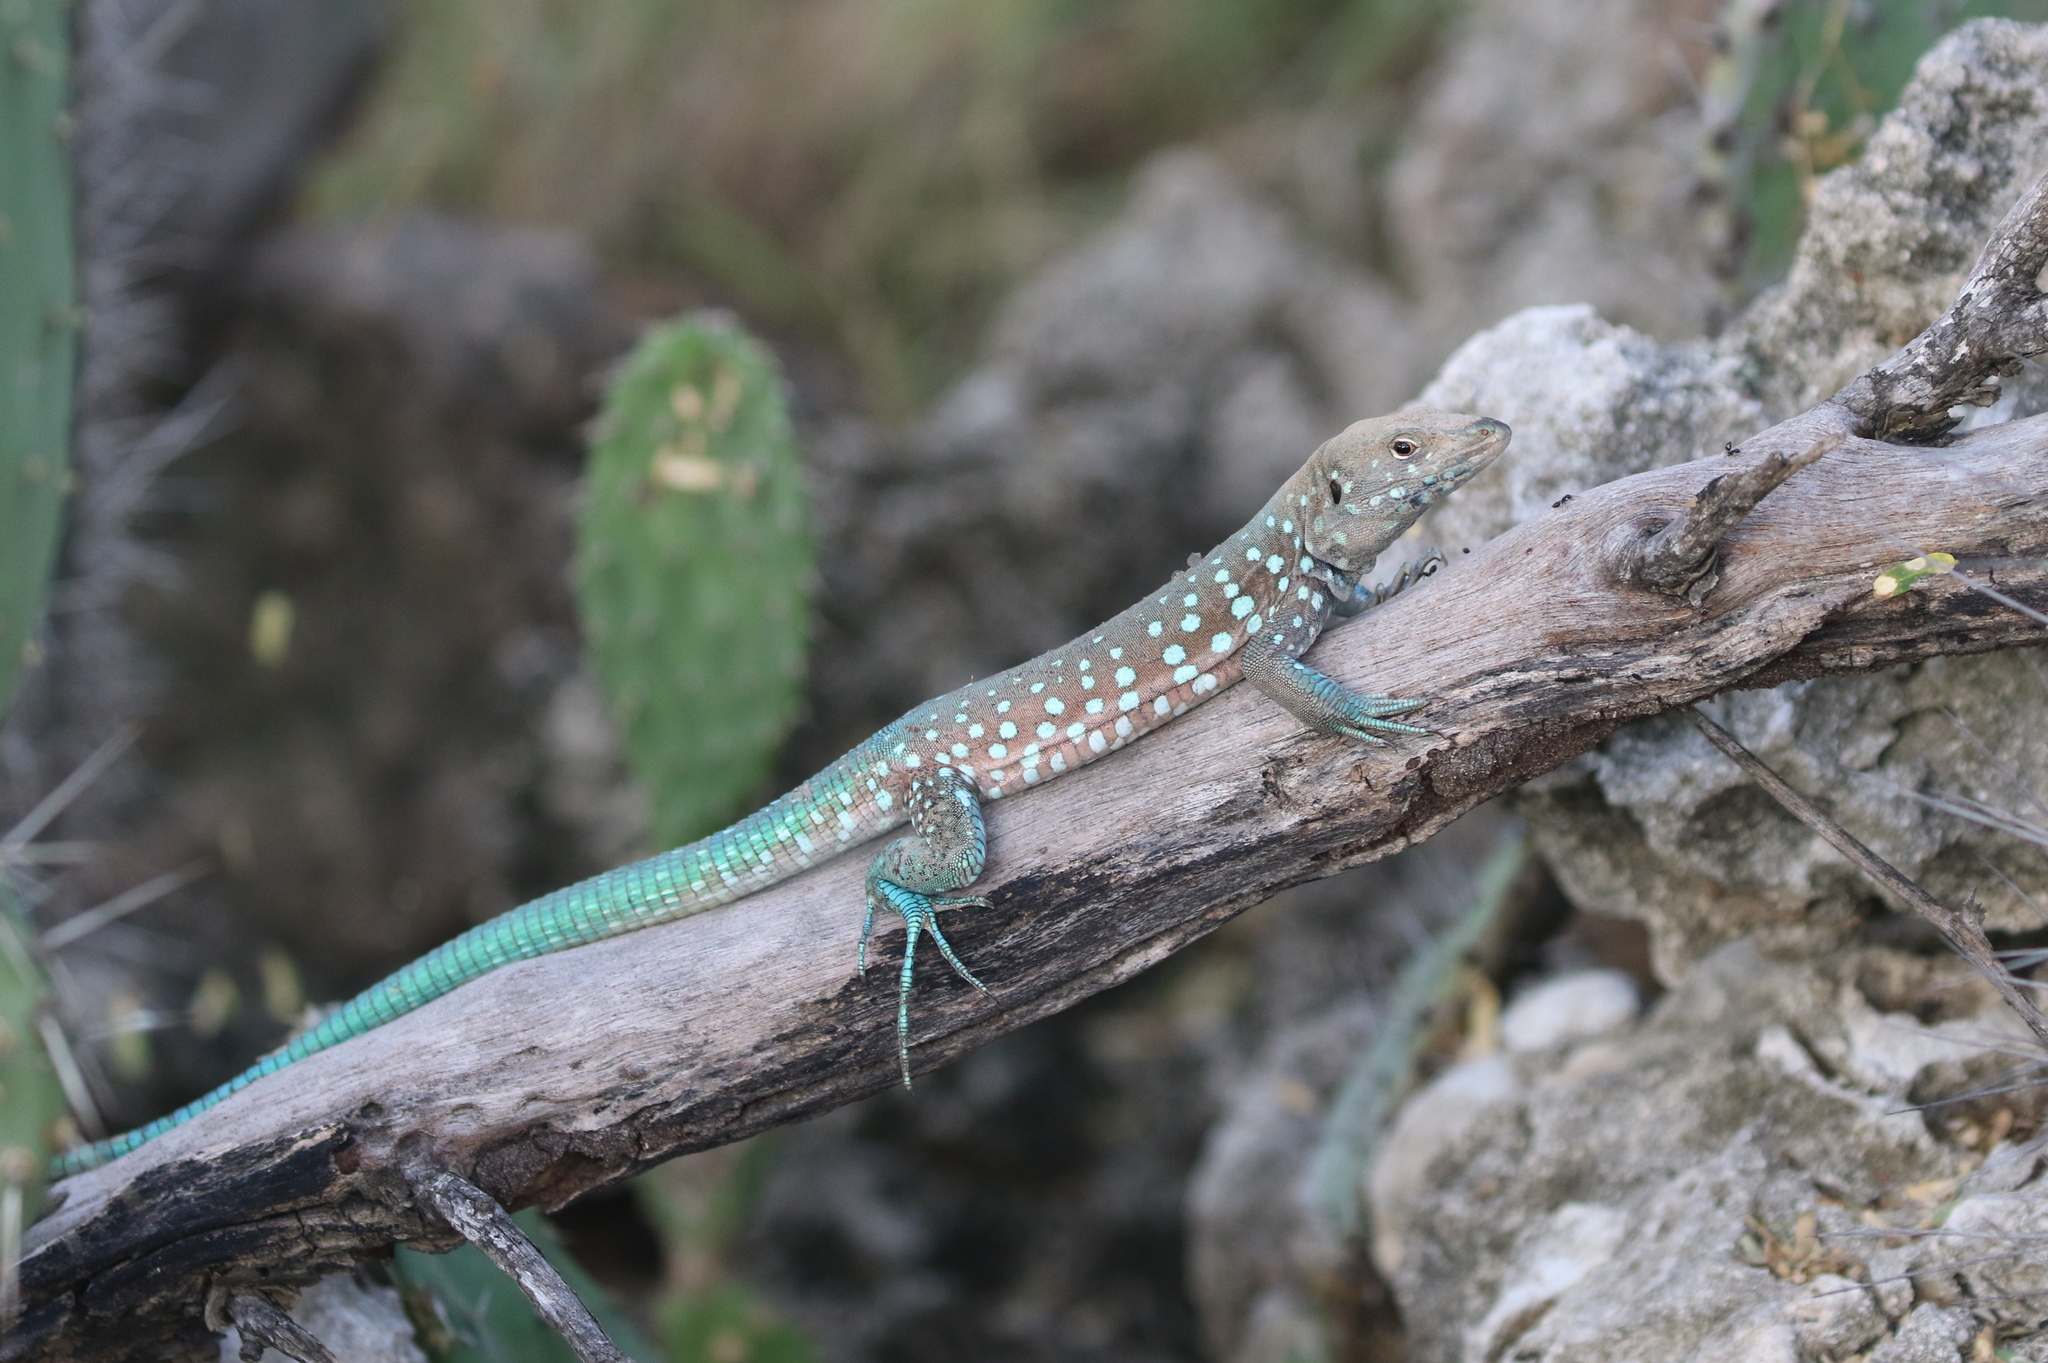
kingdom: Animalia
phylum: Chordata
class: Squamata
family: Teiidae
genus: Cnemidophorus
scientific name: Cnemidophorus arubensis
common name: Aruba whiptail
